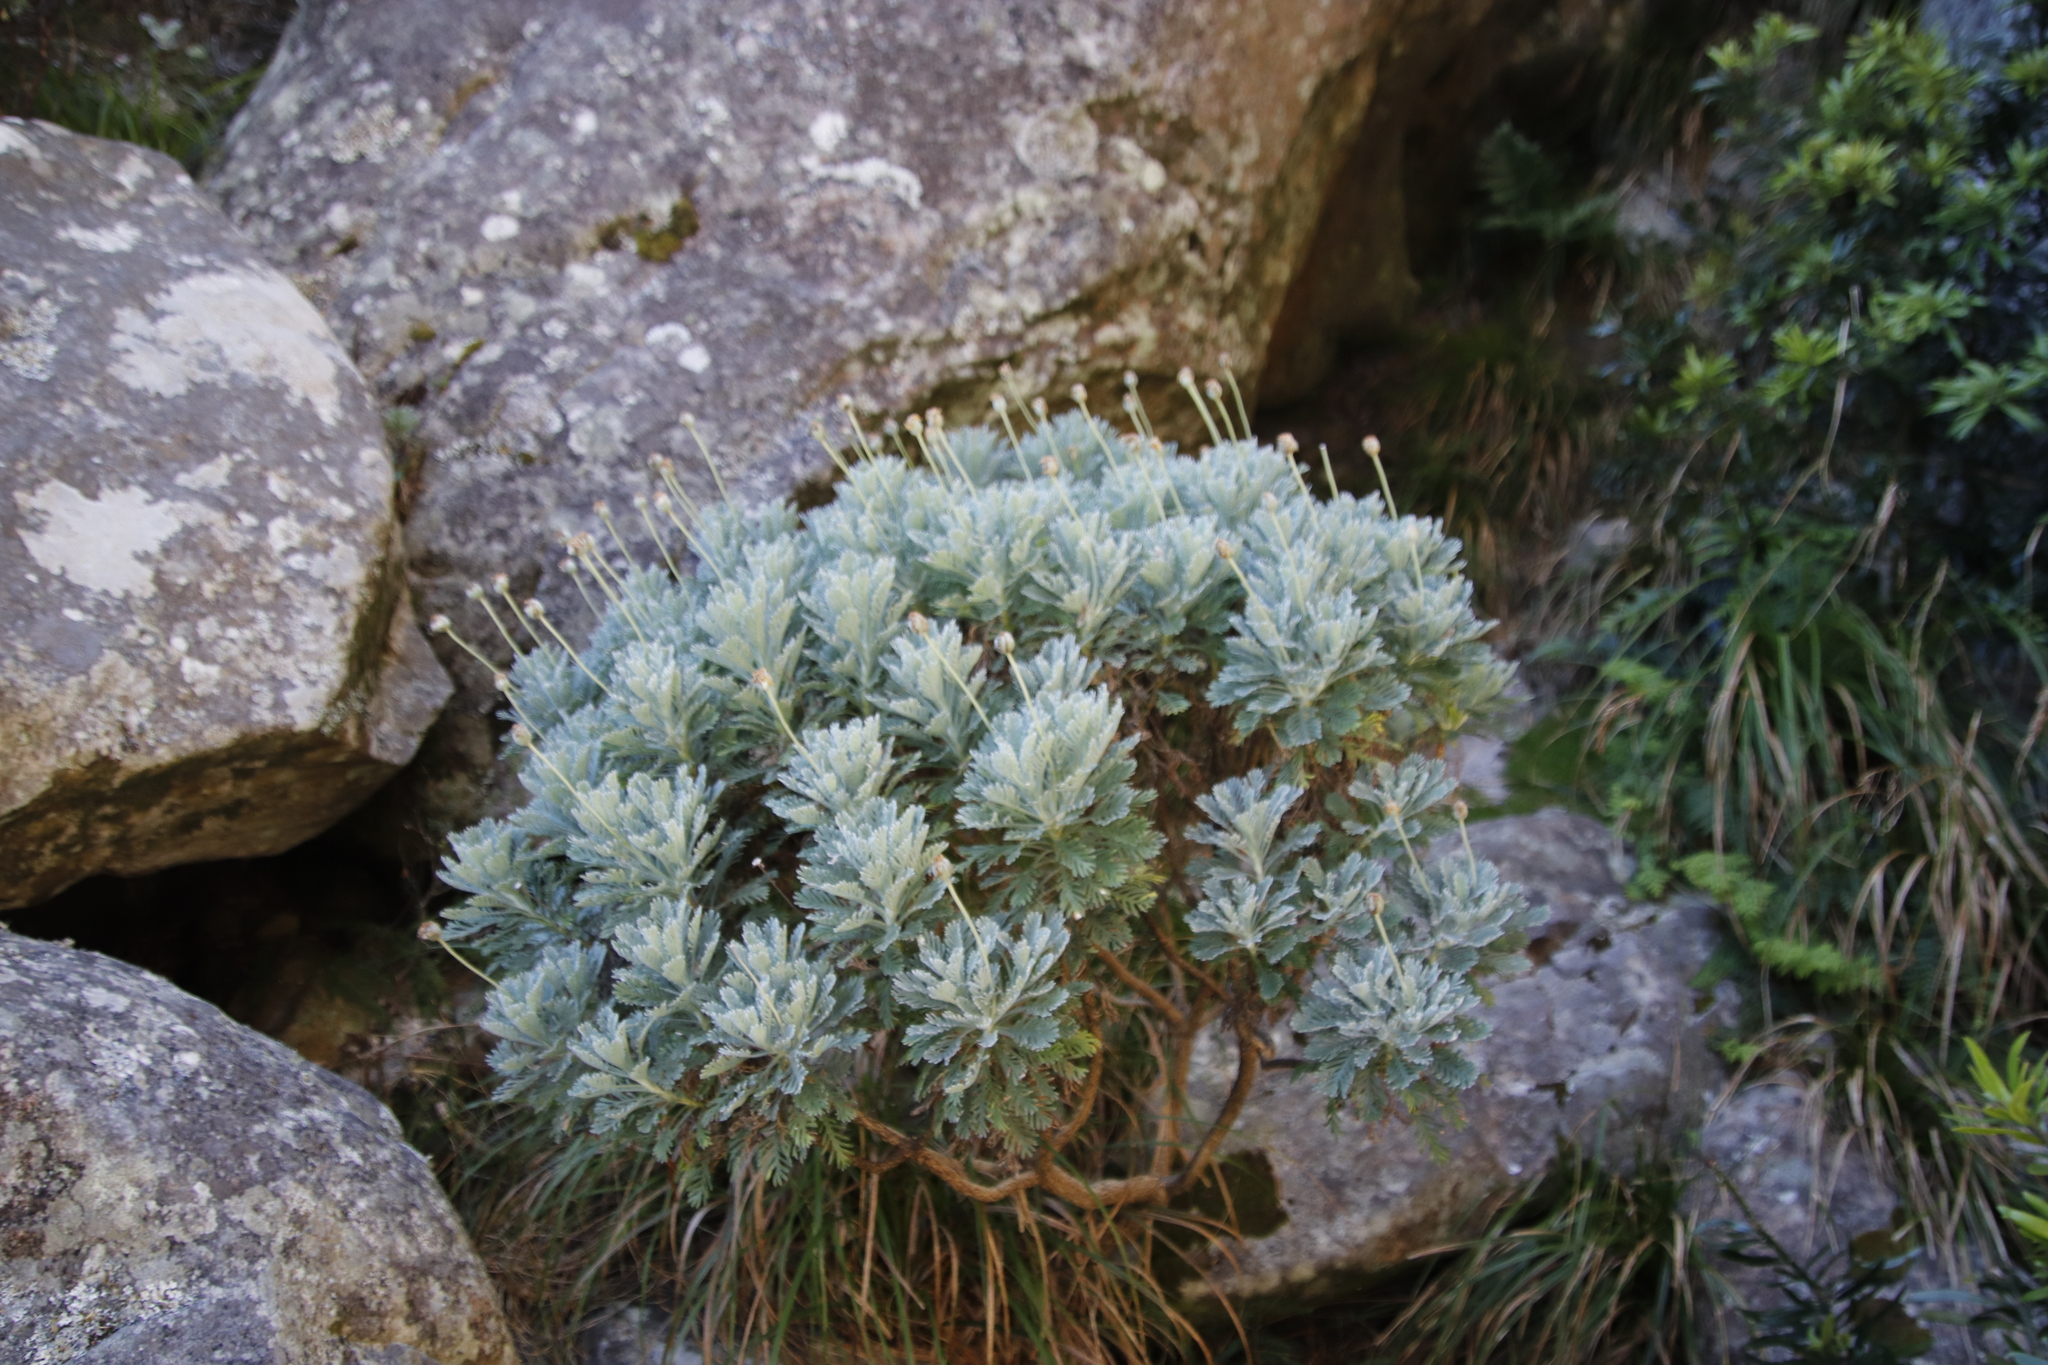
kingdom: Plantae
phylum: Tracheophyta
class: Magnoliopsida
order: Asterales
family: Asteraceae
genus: Euryops
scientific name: Euryops pectinatus
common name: Gray-leaf euryops
